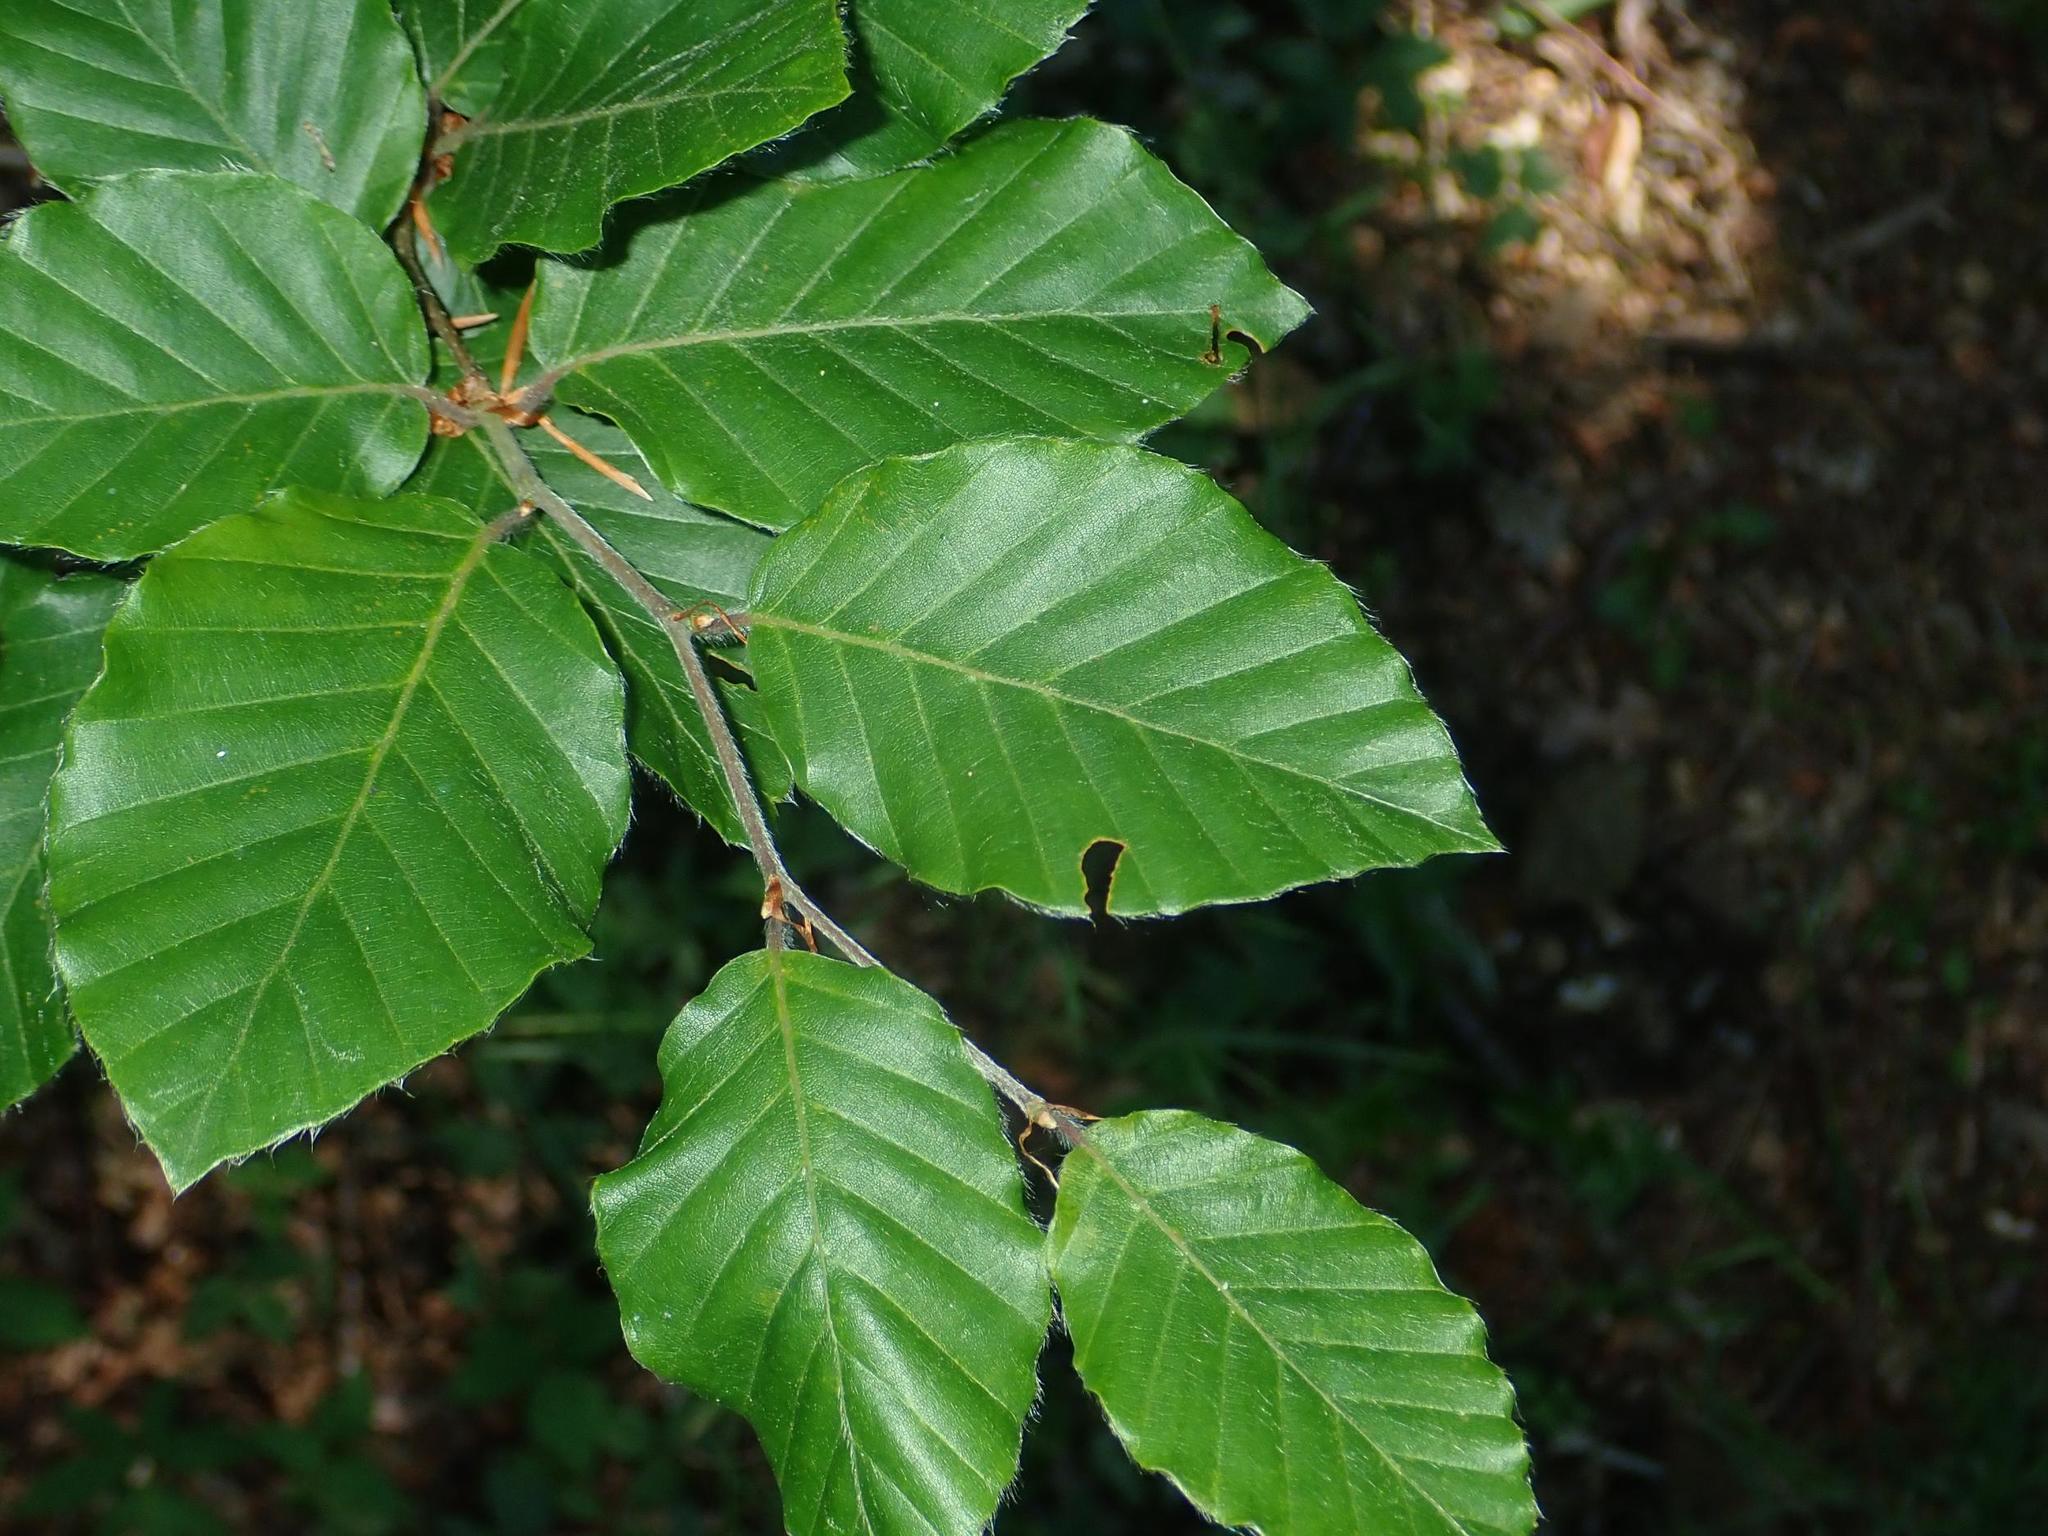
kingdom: Plantae
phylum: Tracheophyta
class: Magnoliopsida
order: Fagales
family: Fagaceae
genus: Fagus
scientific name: Fagus sylvatica
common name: Beech
